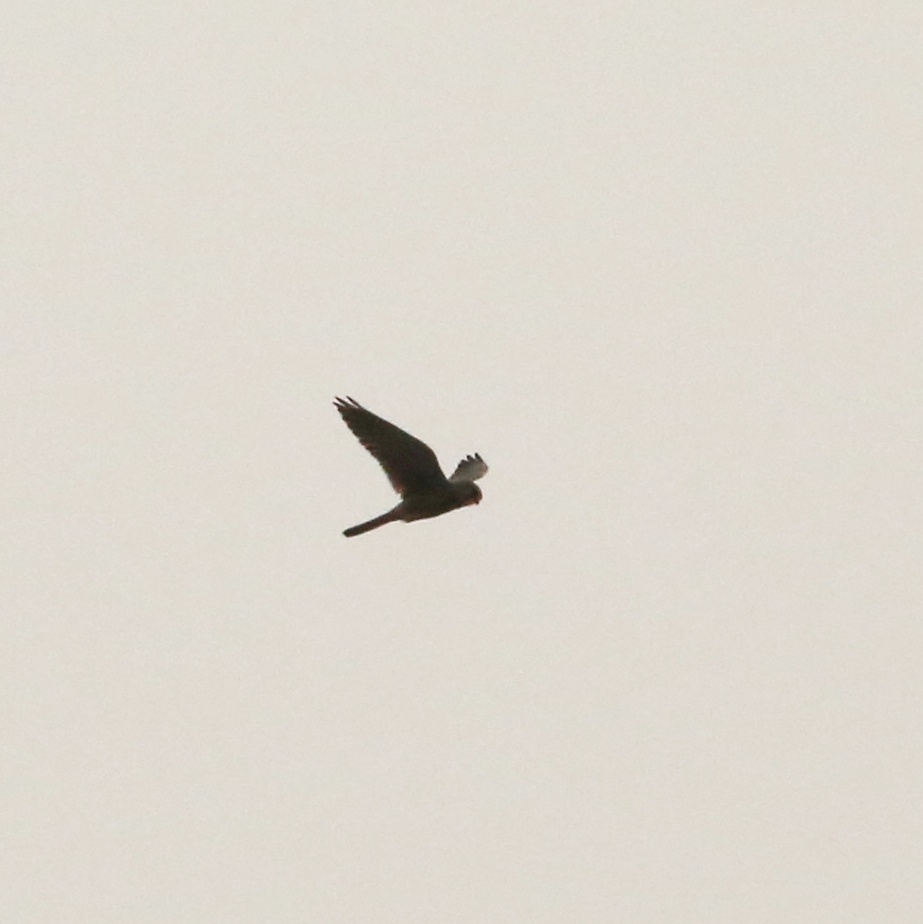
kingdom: Animalia
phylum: Chordata
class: Aves
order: Falconiformes
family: Falconidae
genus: Falco
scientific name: Falco tinnunculus
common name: Common kestrel
